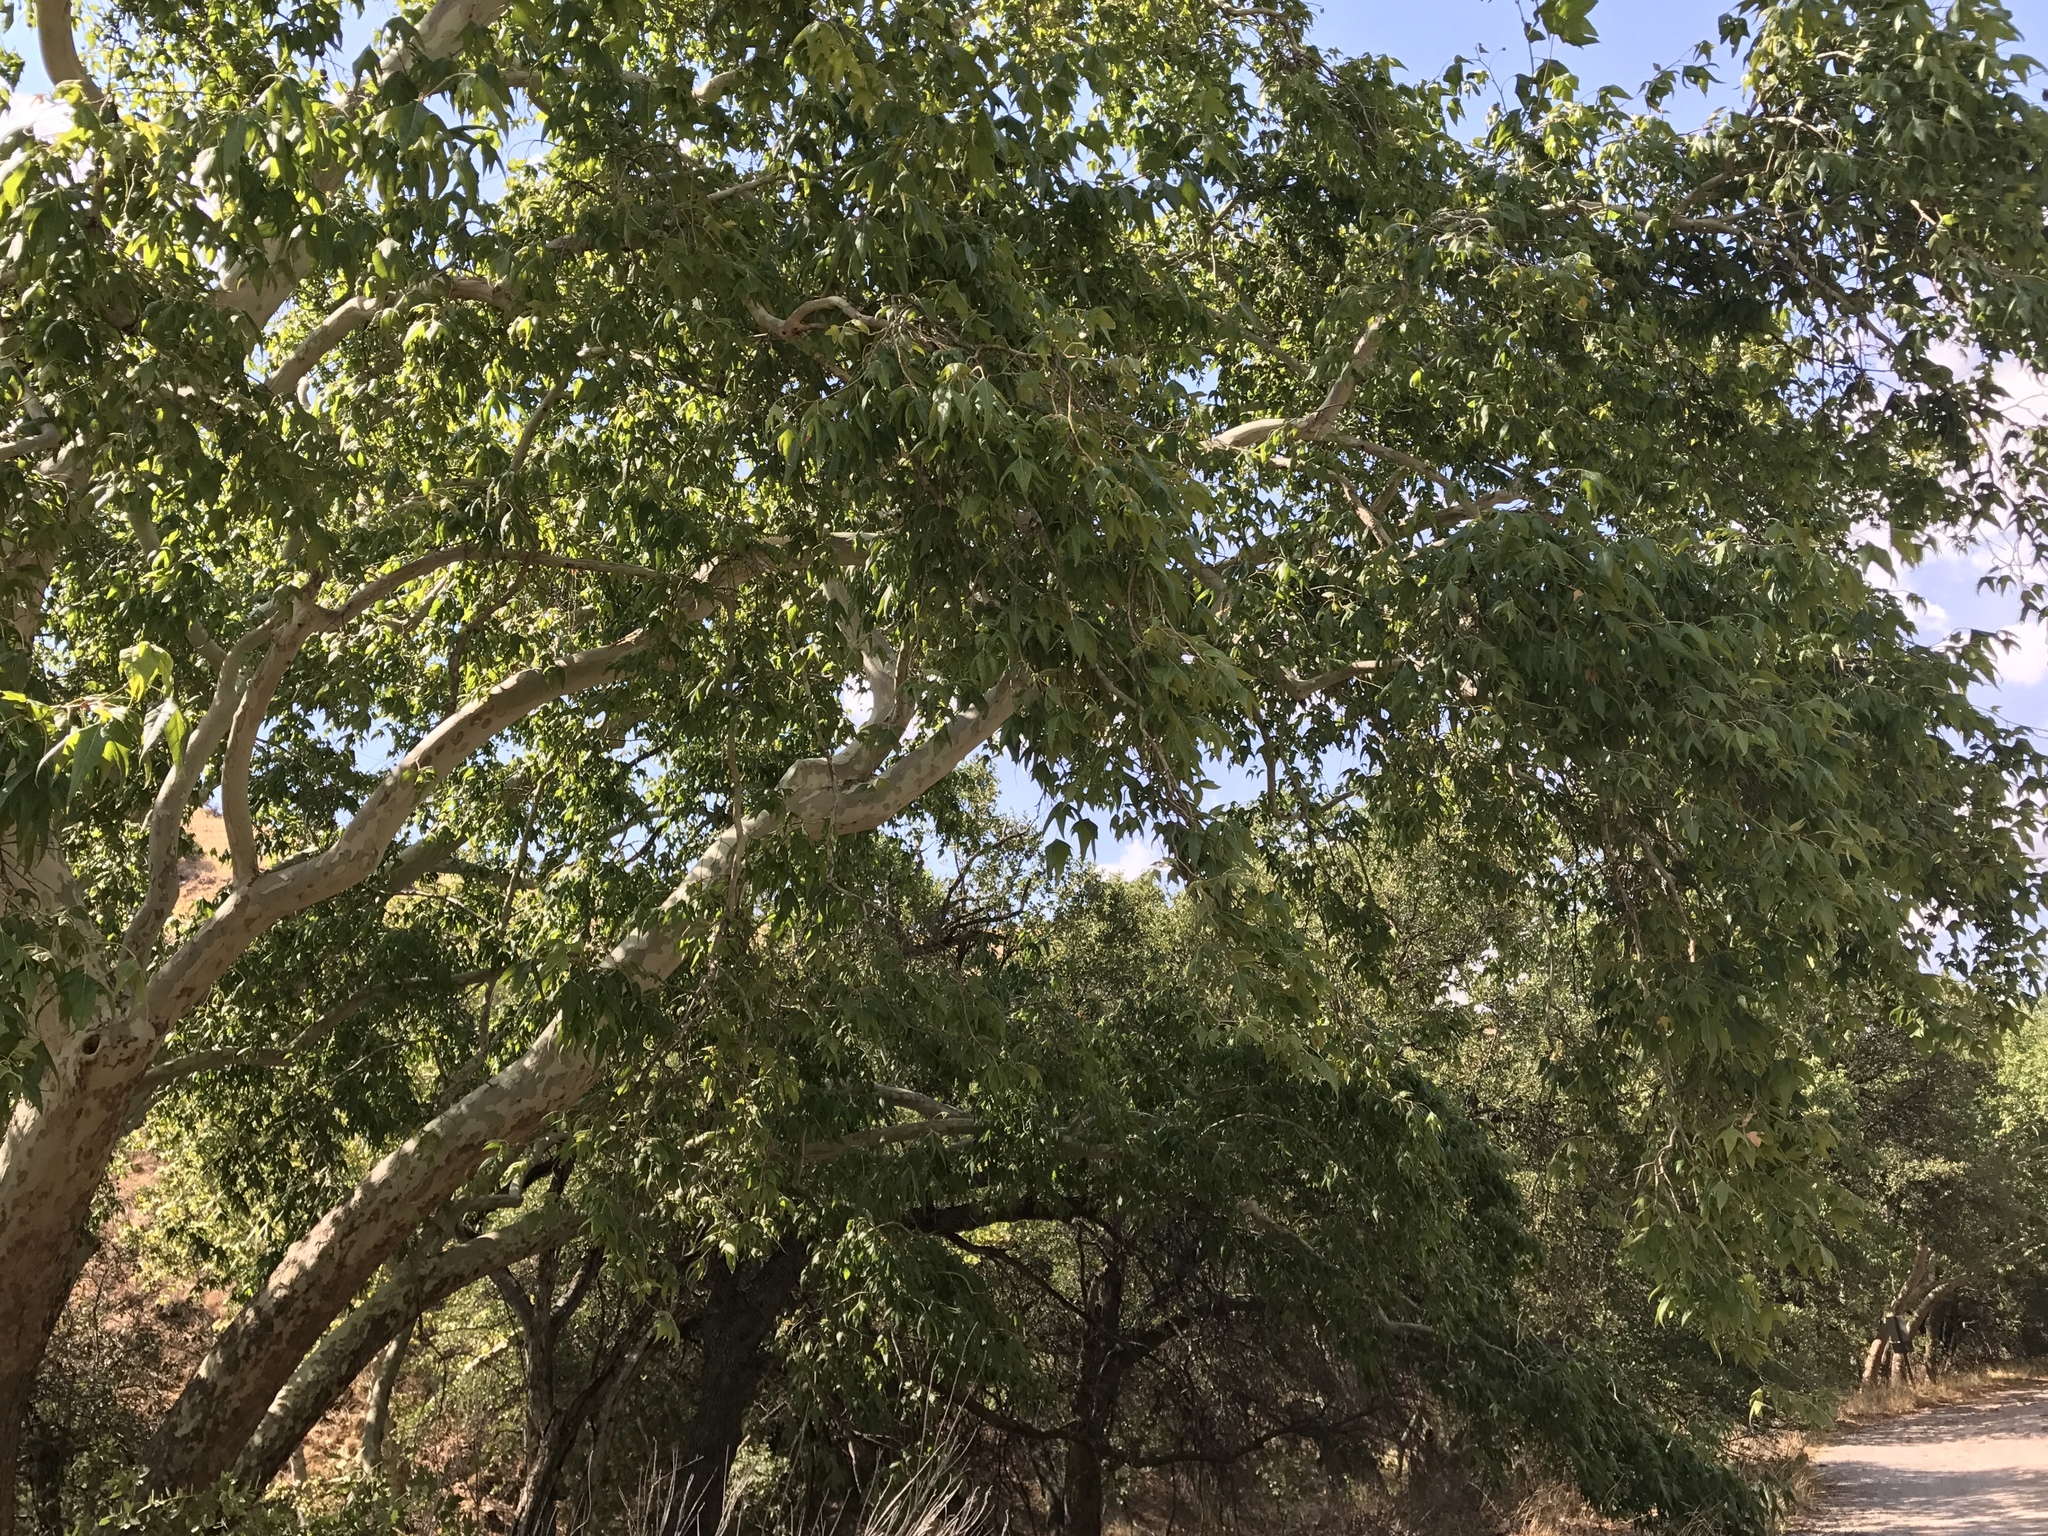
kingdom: Plantae
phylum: Tracheophyta
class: Magnoliopsida
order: Proteales
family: Platanaceae
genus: Platanus
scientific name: Platanus wrightii
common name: Arizona sycamore
